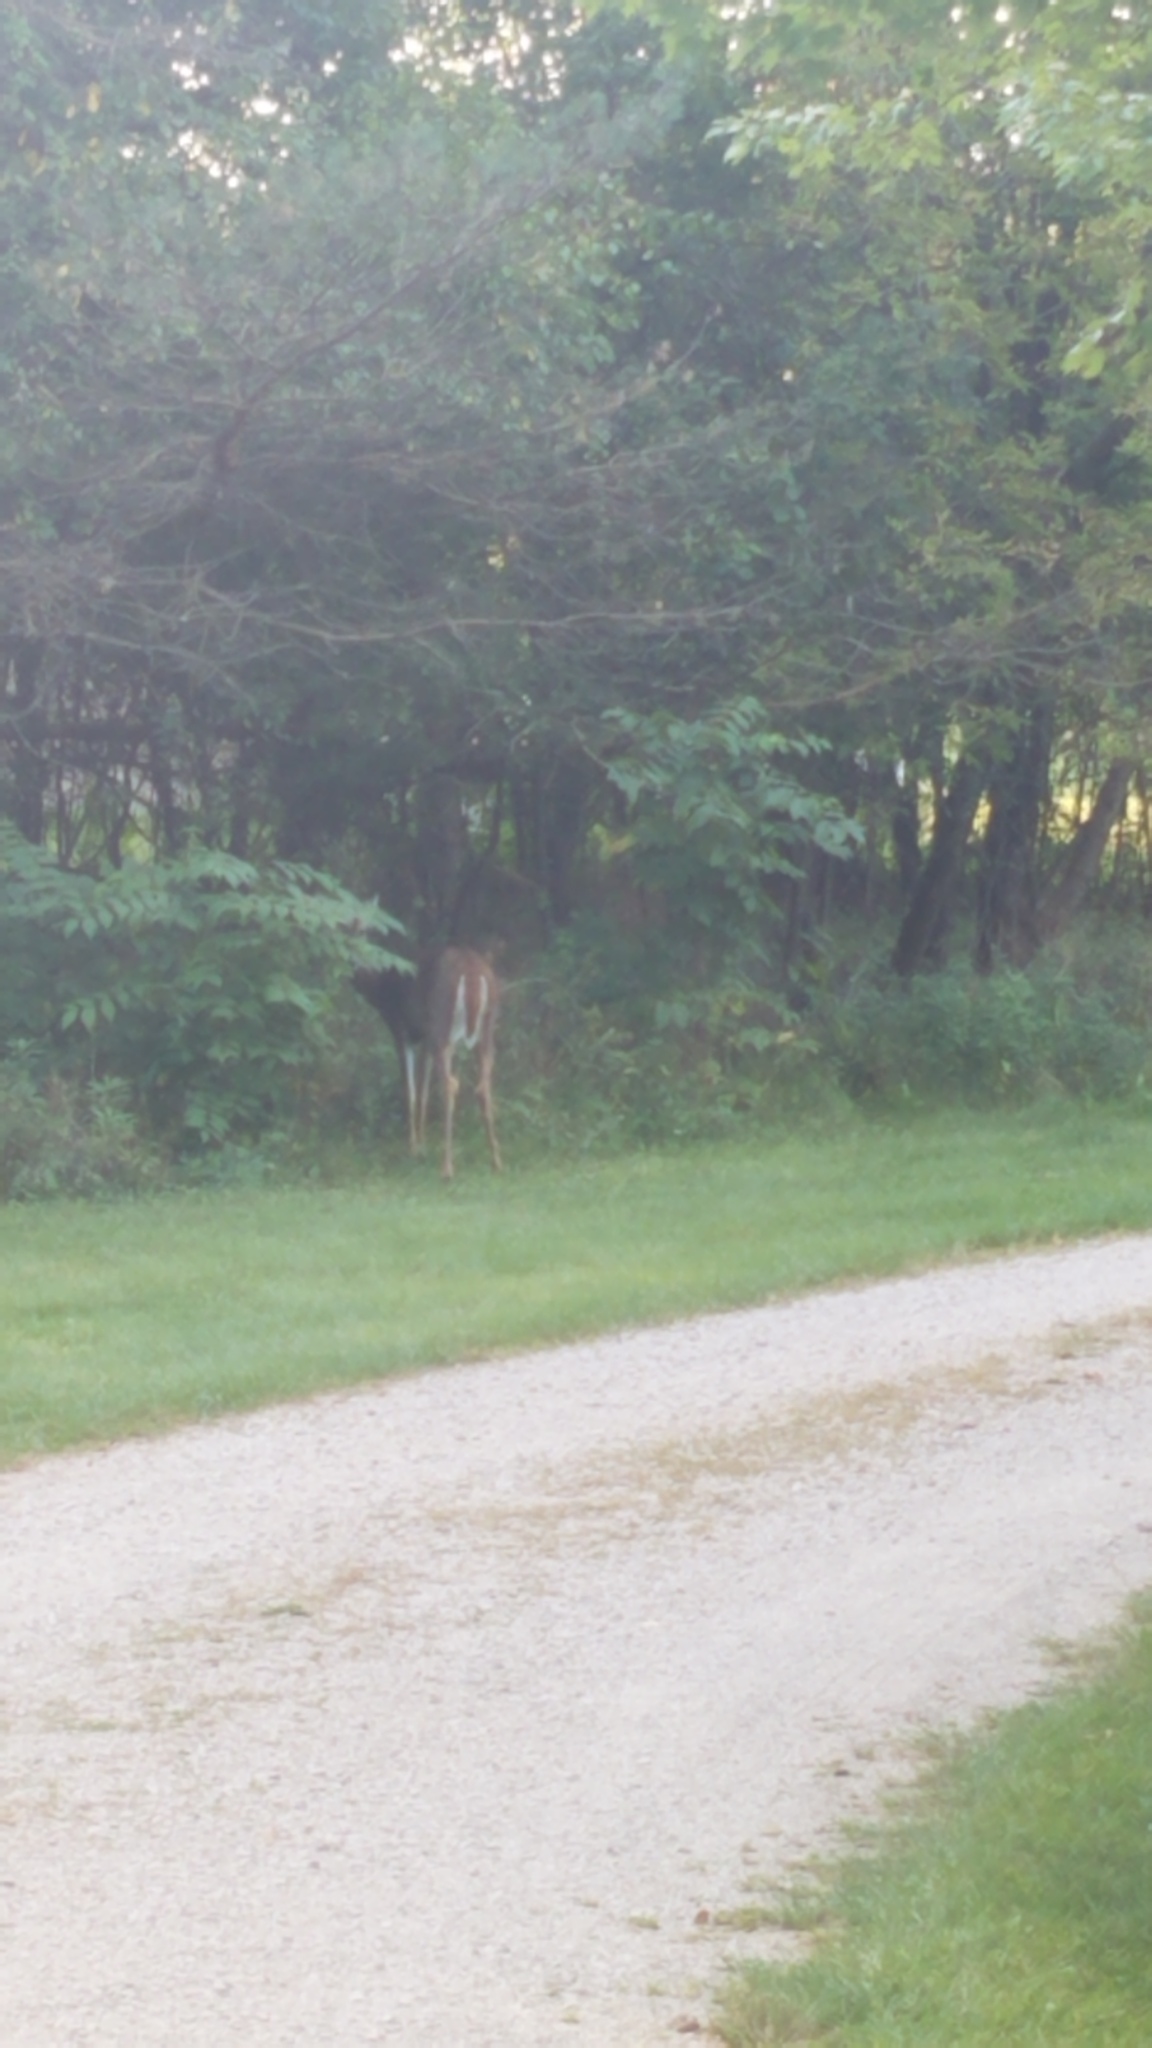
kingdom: Animalia
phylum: Chordata
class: Mammalia
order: Artiodactyla
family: Cervidae
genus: Odocoileus
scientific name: Odocoileus virginianus
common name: White-tailed deer
